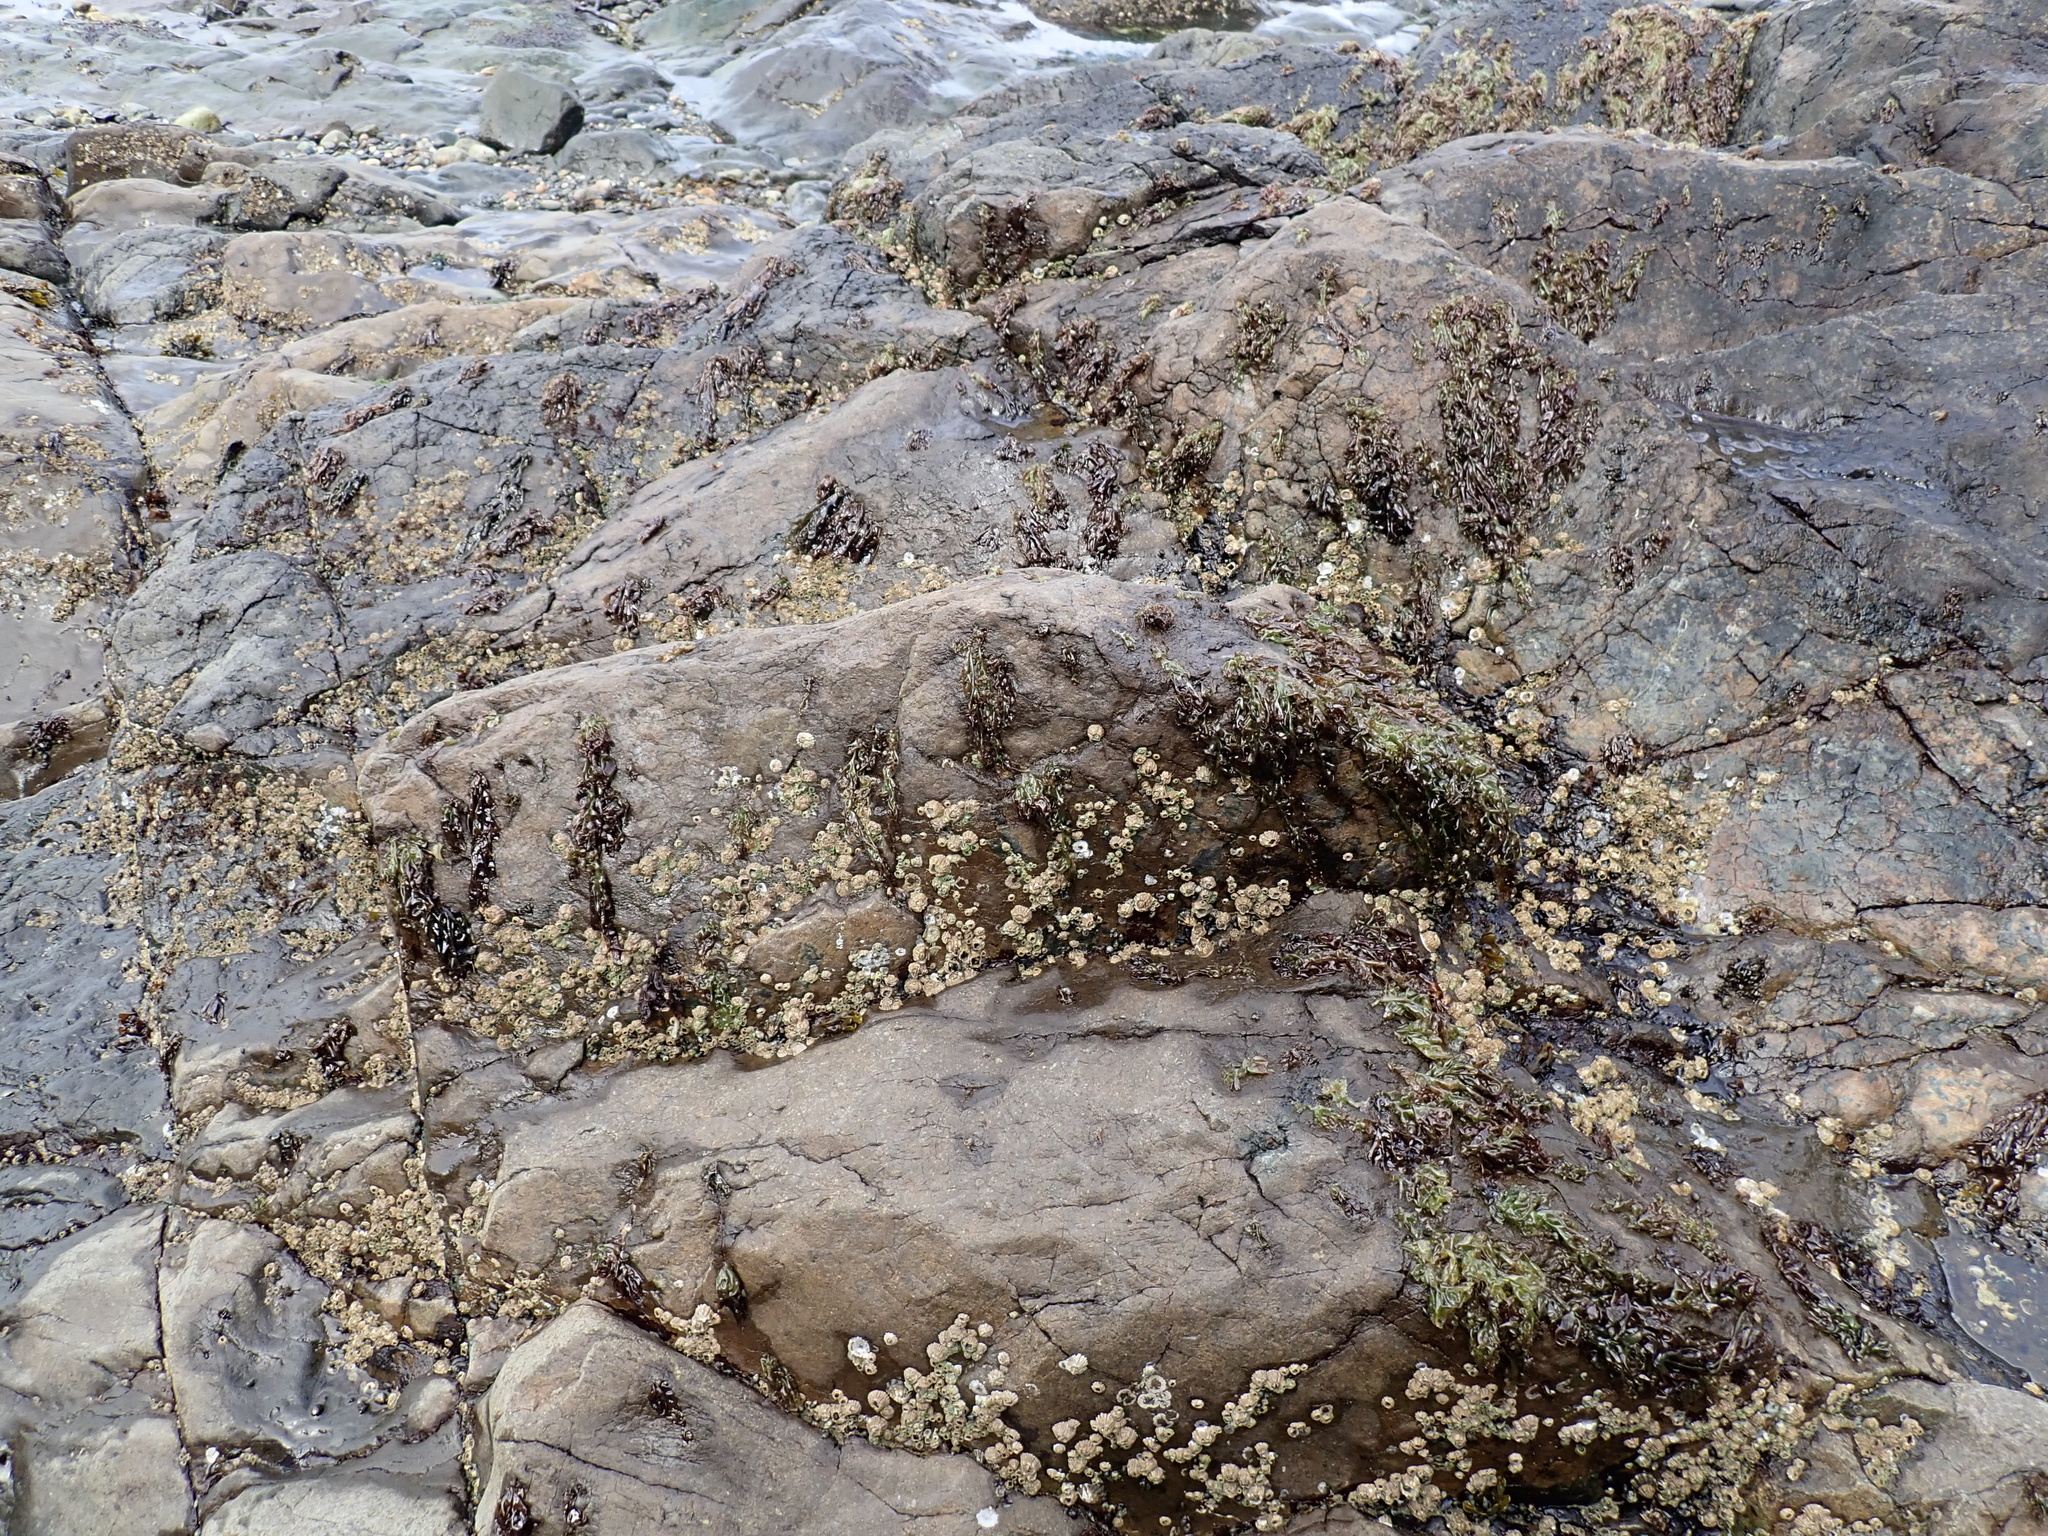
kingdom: Animalia
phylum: Arthropoda
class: Maxillopoda
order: Sessilia
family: Archaeobalanidae
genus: Semibalanus
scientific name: Semibalanus cariosus
